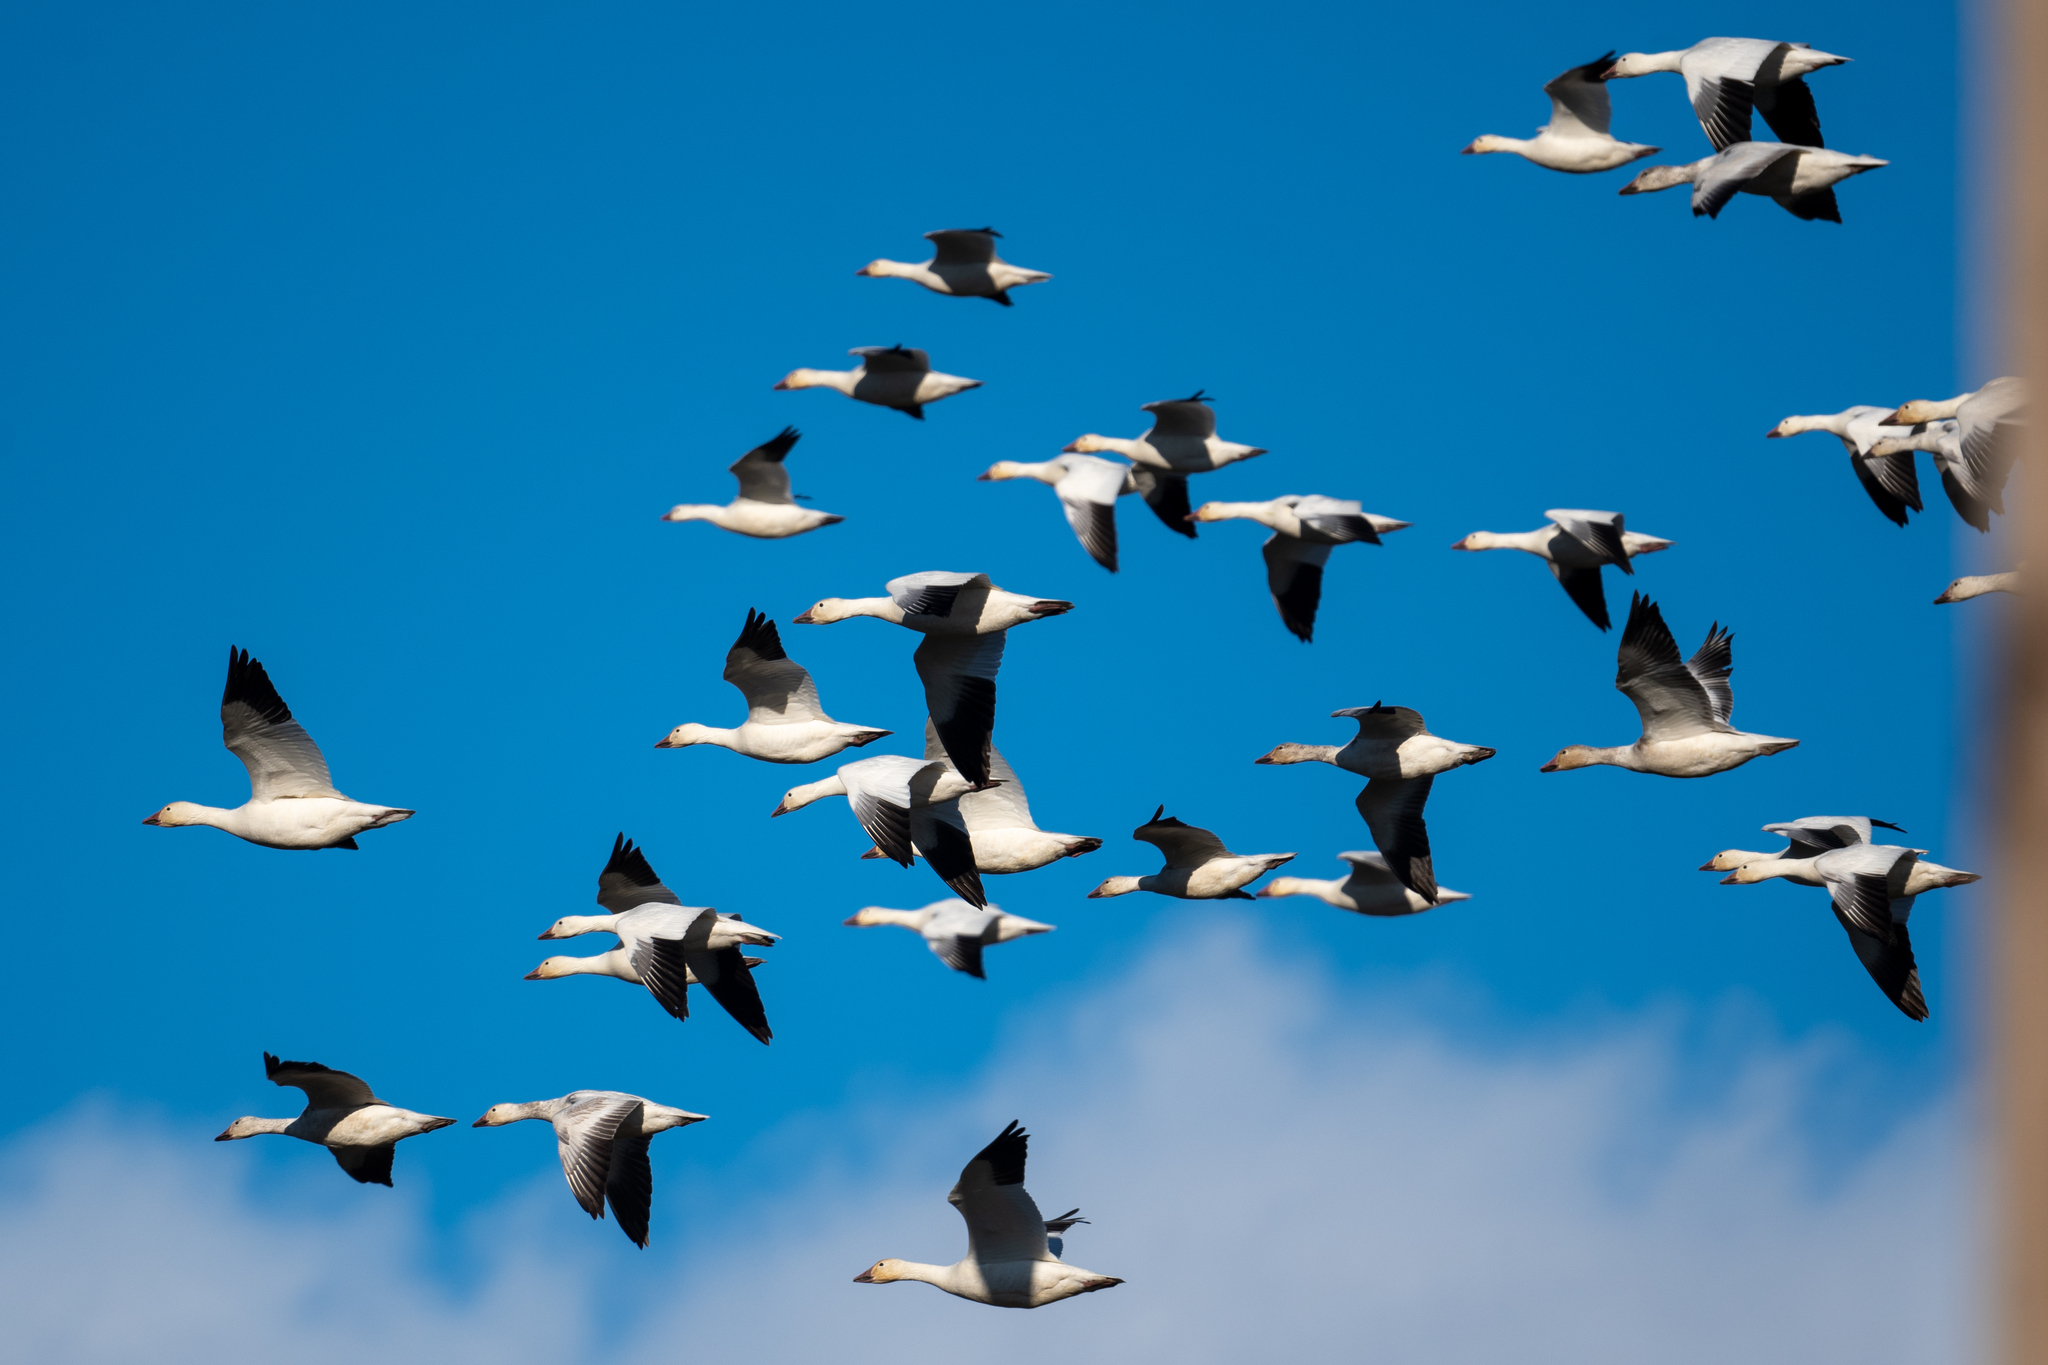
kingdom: Animalia
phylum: Chordata
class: Aves
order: Anseriformes
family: Anatidae
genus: Anser
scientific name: Anser caerulescens
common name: Snow goose
